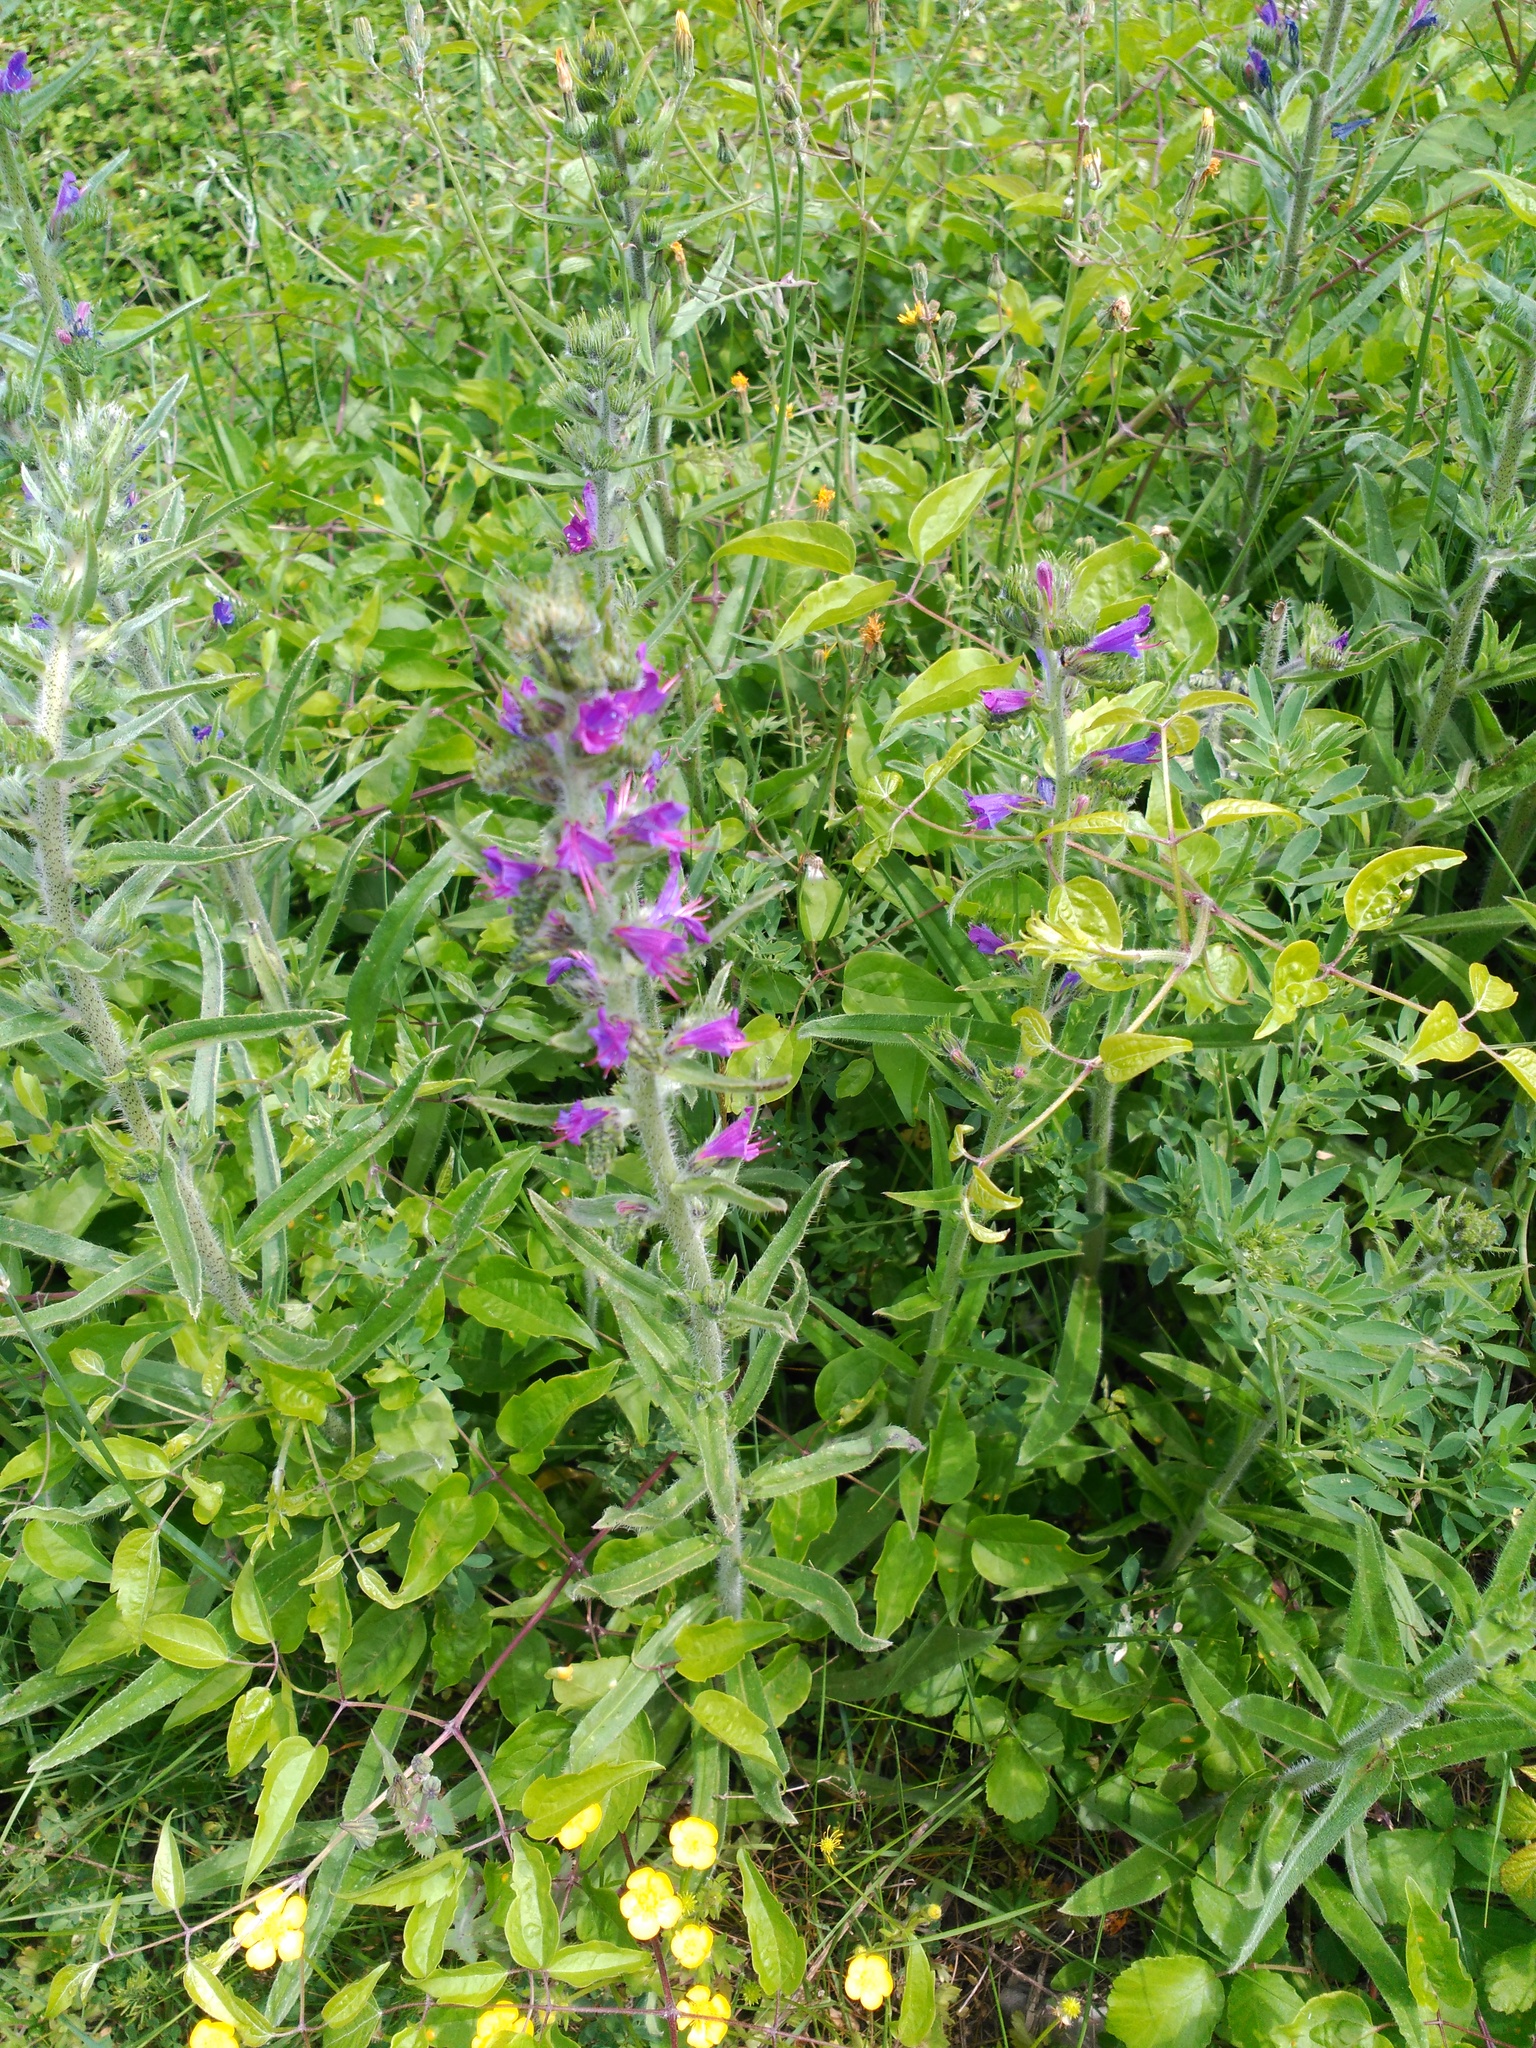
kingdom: Plantae
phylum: Tracheophyta
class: Magnoliopsida
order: Boraginales
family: Boraginaceae
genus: Echium
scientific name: Echium vulgare
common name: Common viper's bugloss
